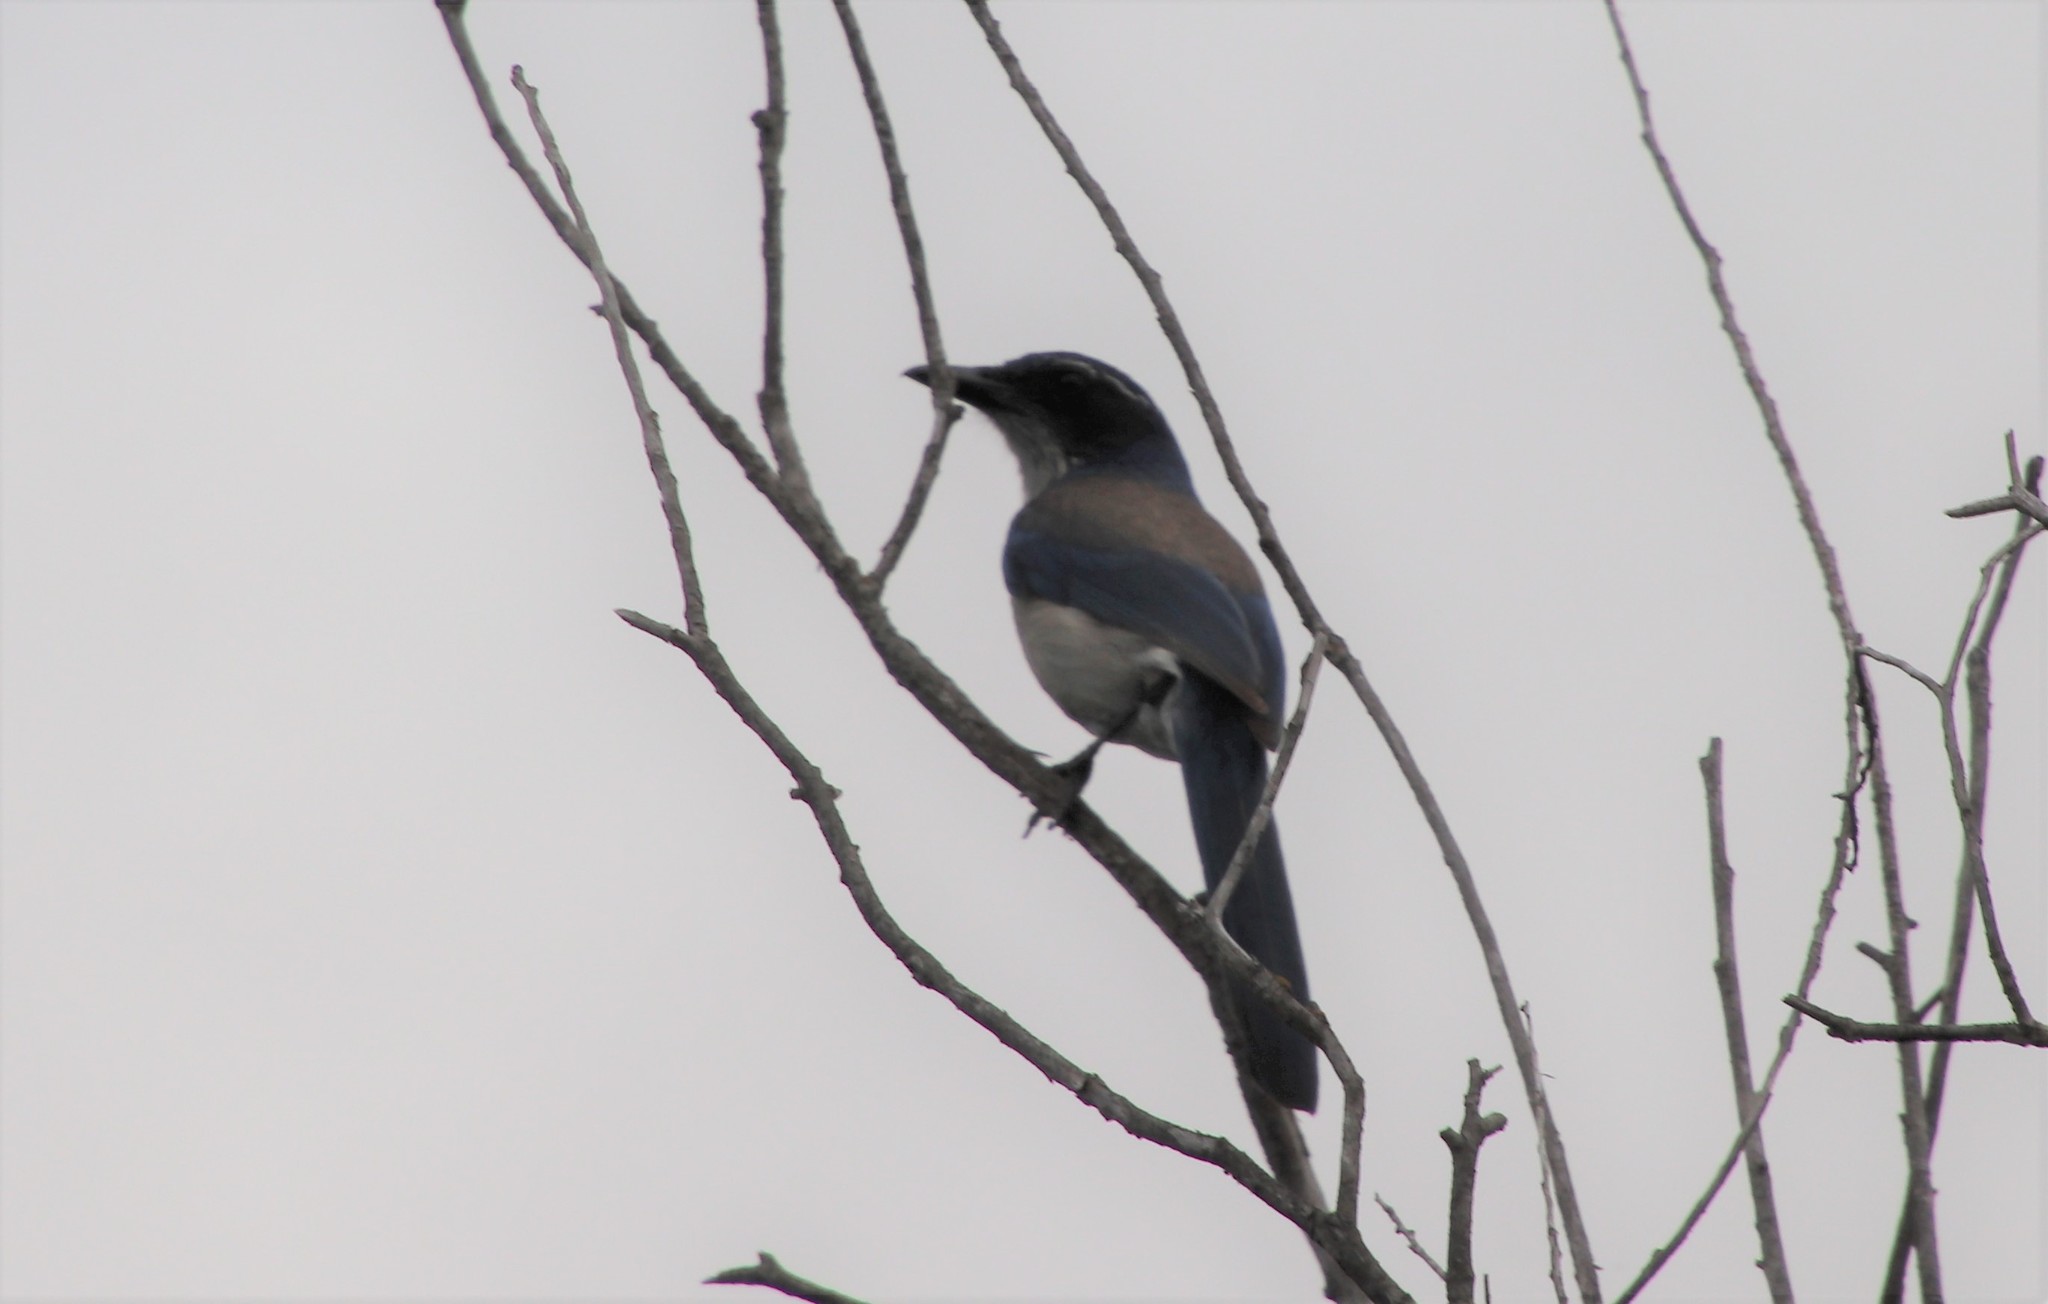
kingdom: Animalia
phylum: Chordata
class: Aves
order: Passeriformes
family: Corvidae
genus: Aphelocoma
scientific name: Aphelocoma californica
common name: California scrub-jay
